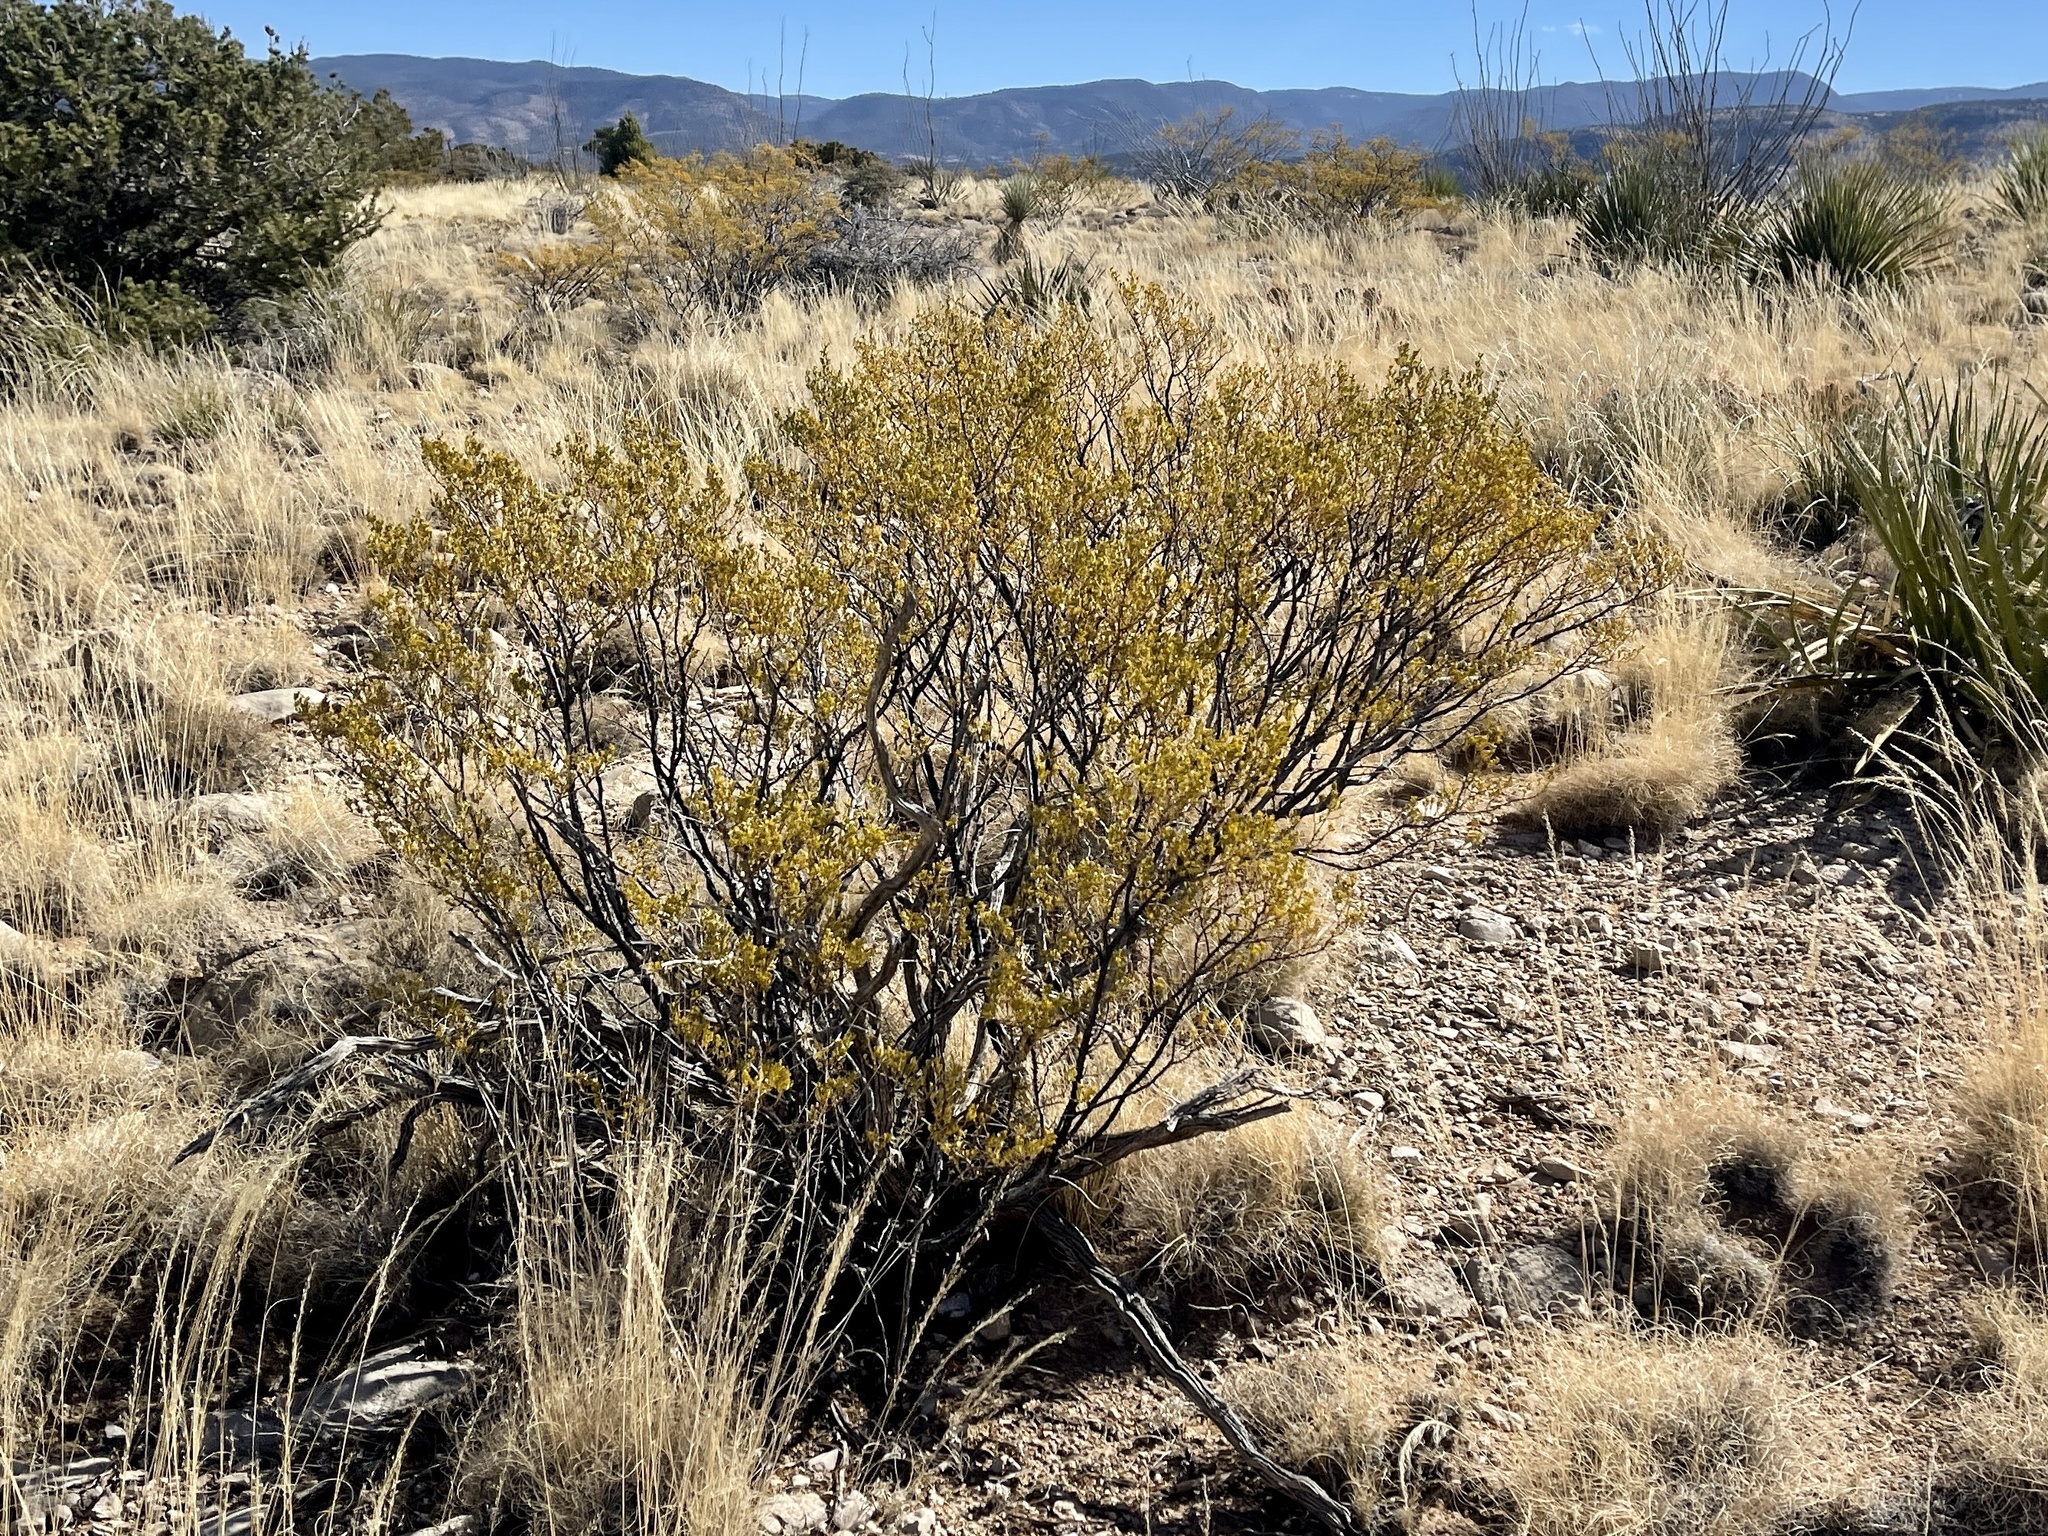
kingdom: Plantae
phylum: Tracheophyta
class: Magnoliopsida
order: Zygophyllales
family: Zygophyllaceae
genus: Larrea
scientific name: Larrea tridentata
